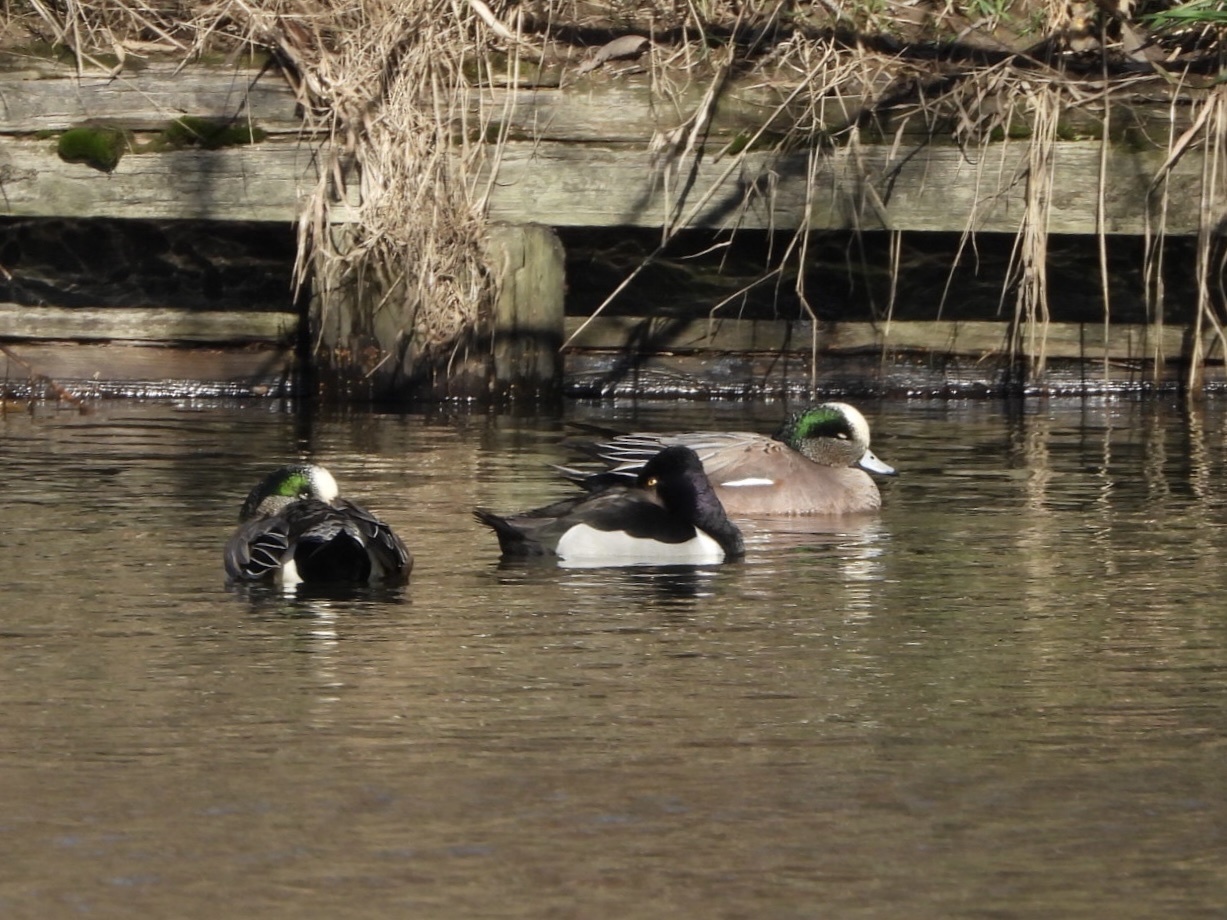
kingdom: Animalia
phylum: Chordata
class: Aves
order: Anseriformes
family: Anatidae
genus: Aythya
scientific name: Aythya collaris
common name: Ring-necked duck
